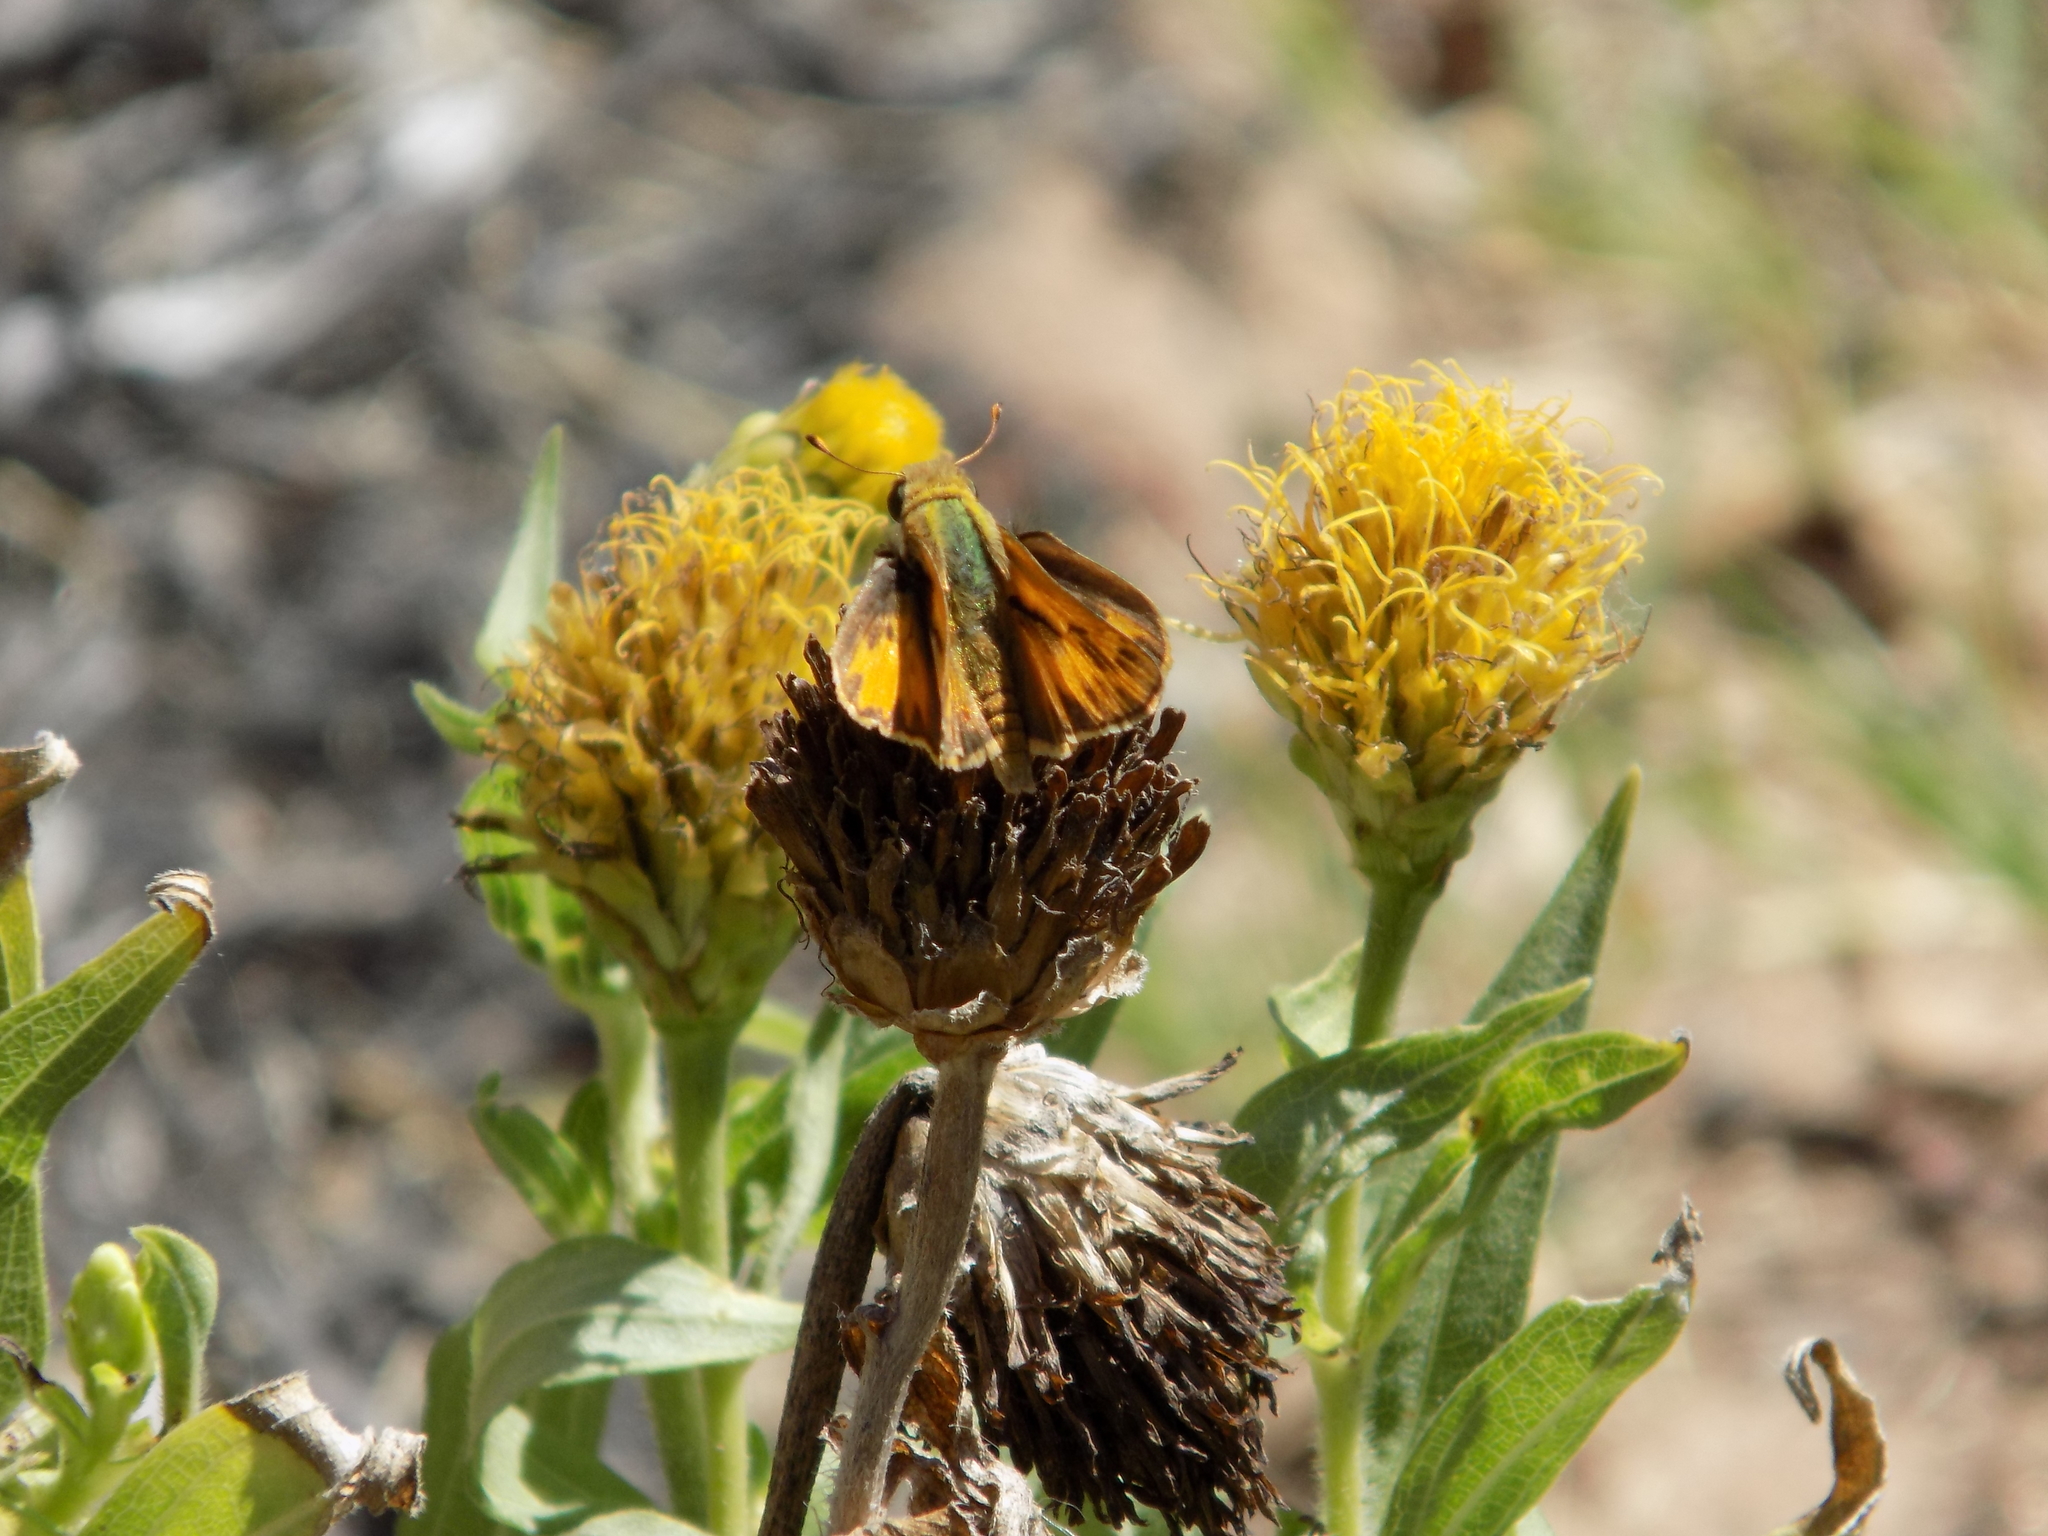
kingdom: Animalia
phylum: Arthropoda
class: Insecta
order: Lepidoptera
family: Hesperiidae
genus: Hylephila
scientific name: Hylephila phyleus
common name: Fiery skipper
